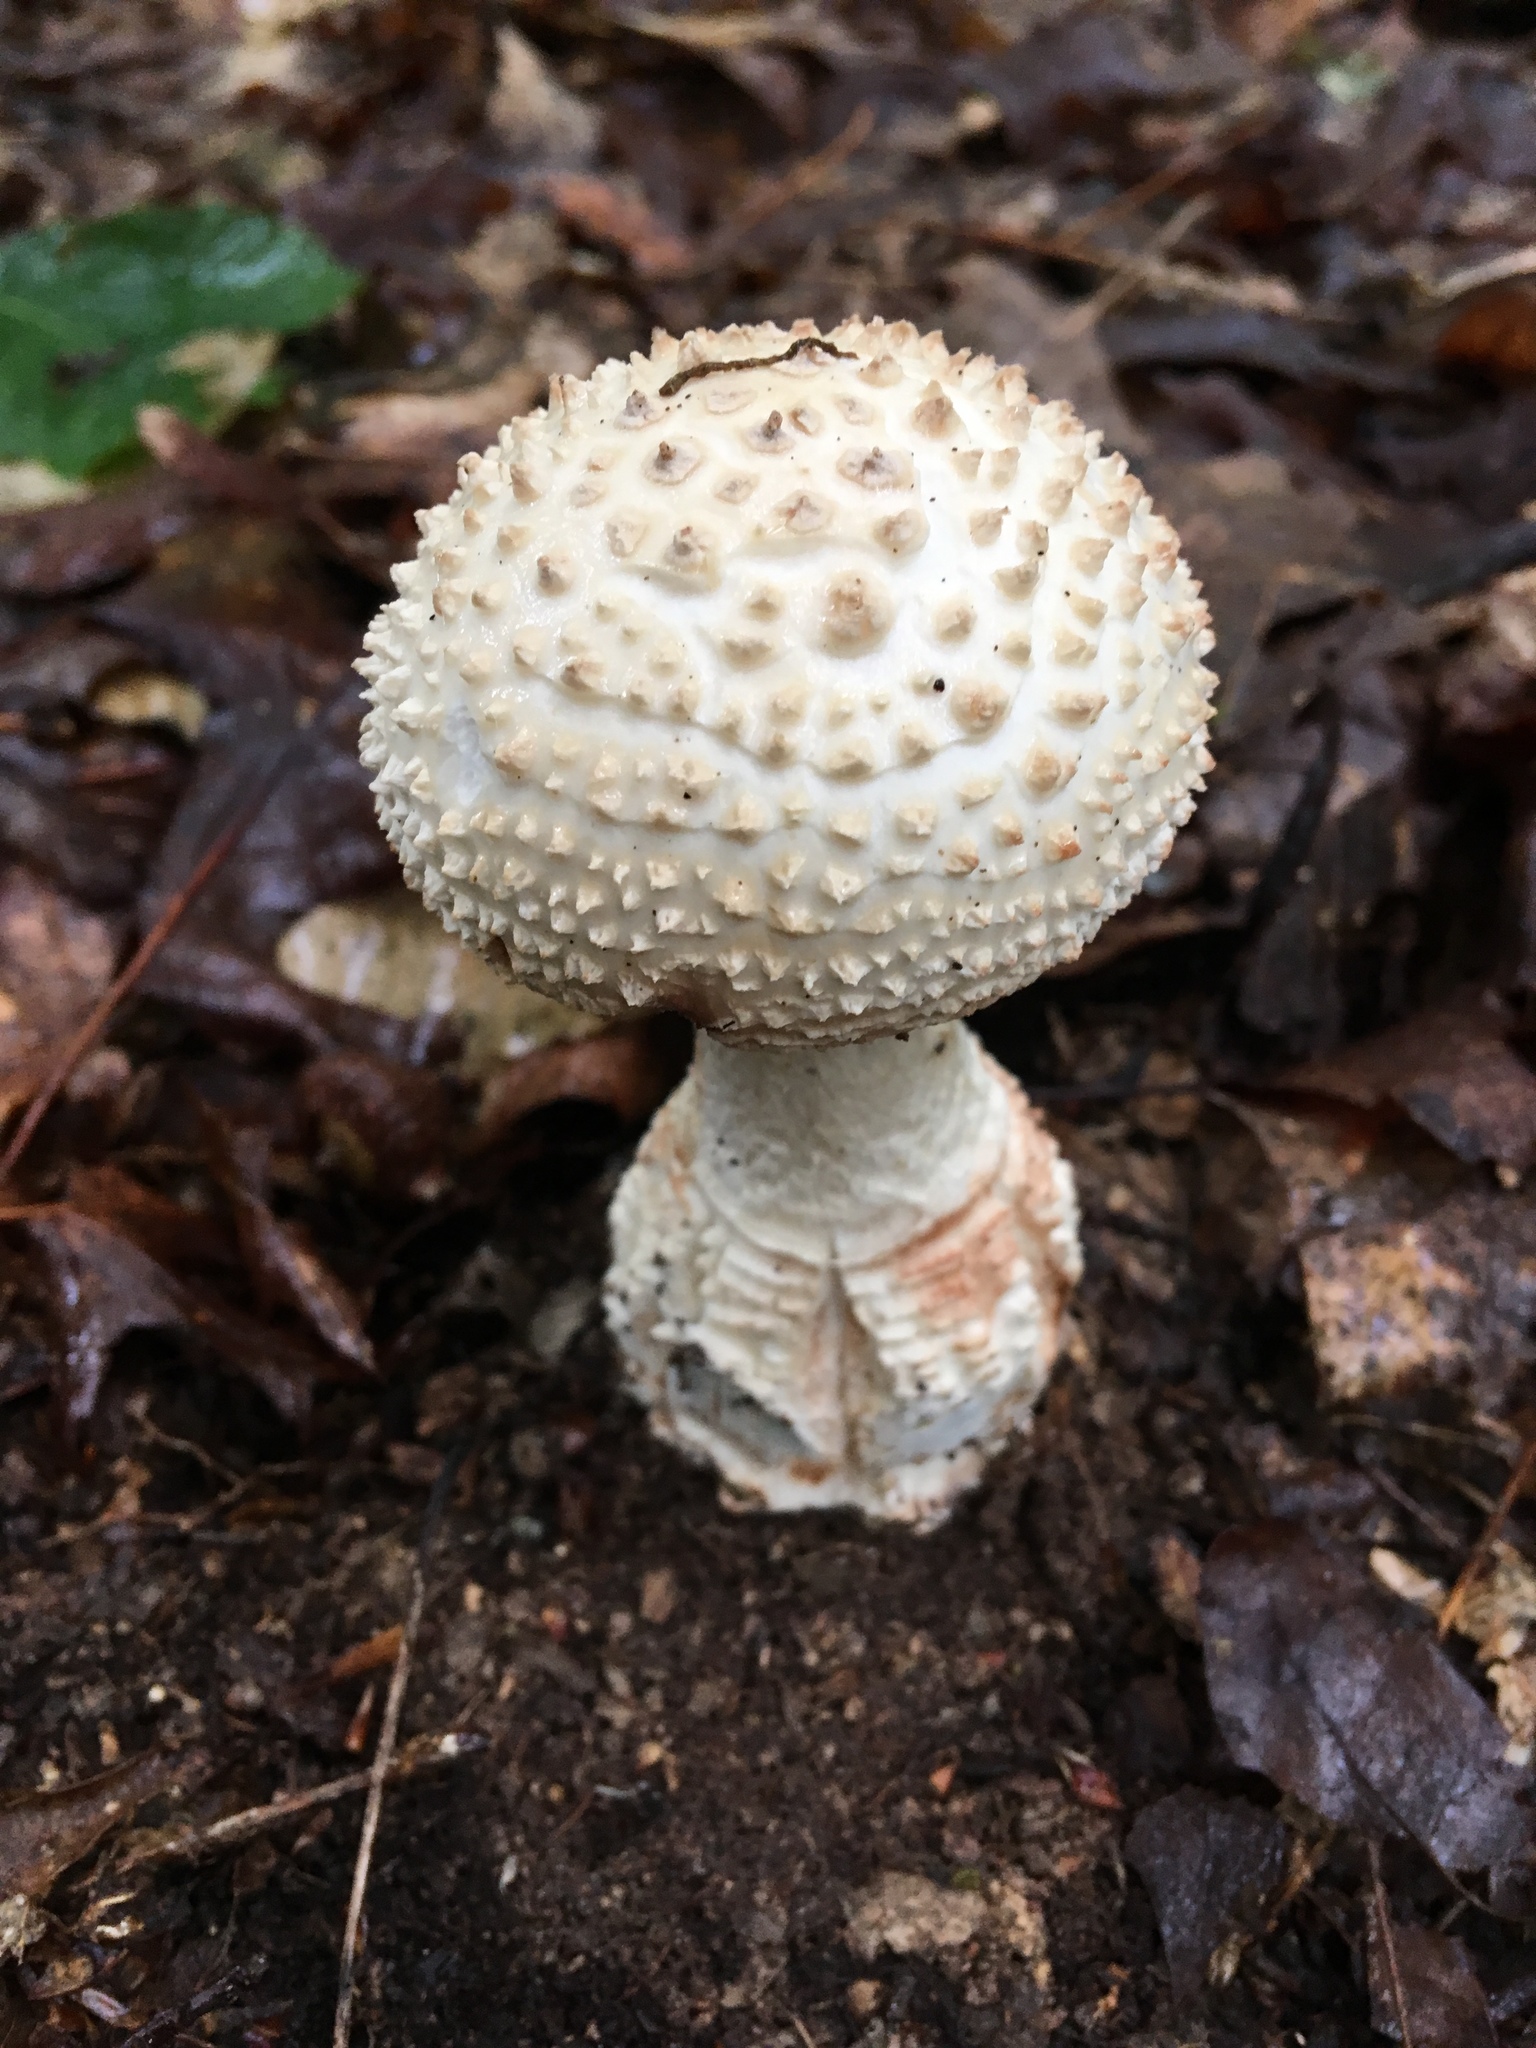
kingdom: Fungi
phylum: Basidiomycota
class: Agaricomycetes
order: Agaricales
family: Amanitaceae
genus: Amanita
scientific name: Amanita cokeri
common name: Coker's amanita
